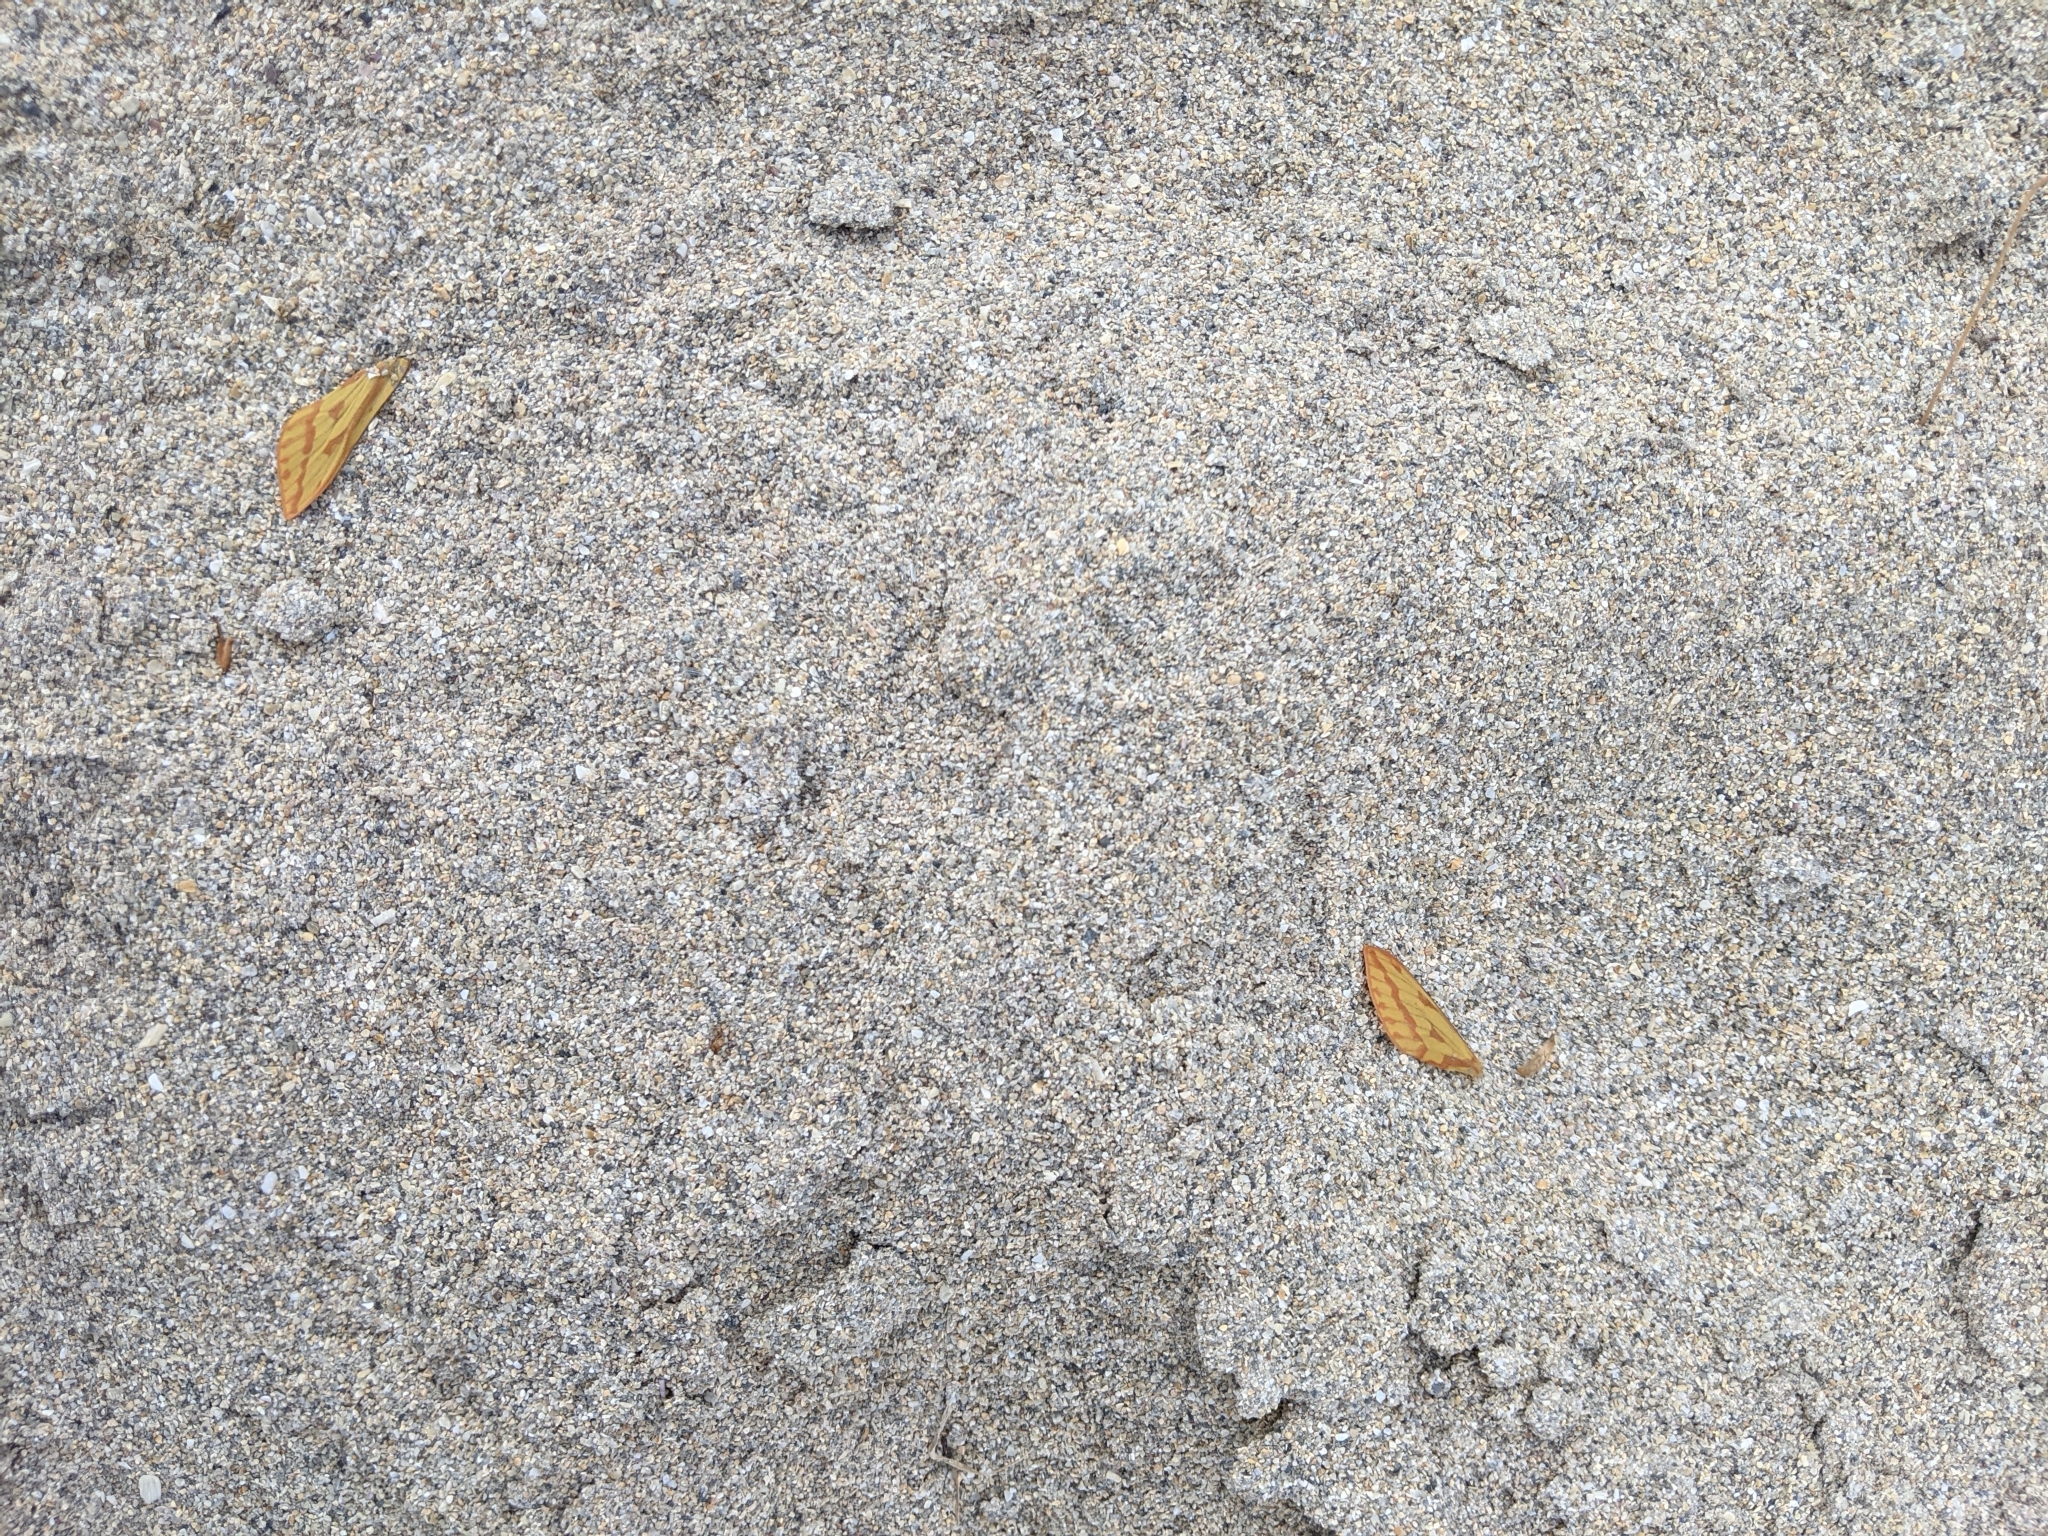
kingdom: Animalia
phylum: Arthropoda
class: Insecta
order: Lepidoptera
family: Hepialidae
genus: Hepialus
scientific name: Hepialus humuli
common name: Ghost moth
